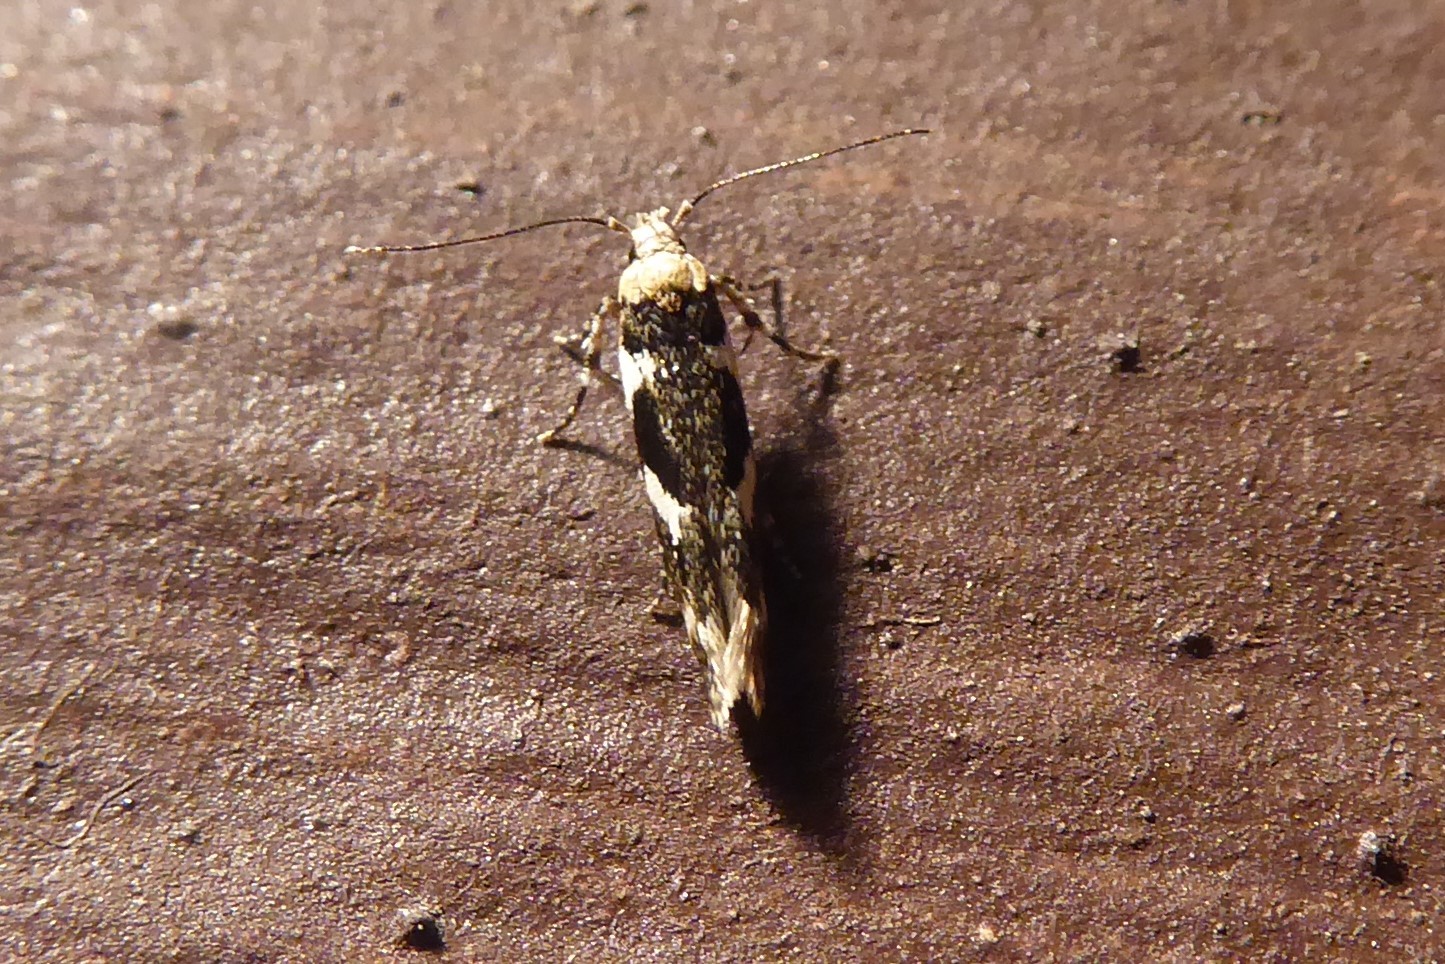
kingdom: Animalia
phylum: Arthropoda
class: Insecta
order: Lepidoptera
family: Cosmopterigidae
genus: Pyroderces
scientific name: Pyroderces deamatella
